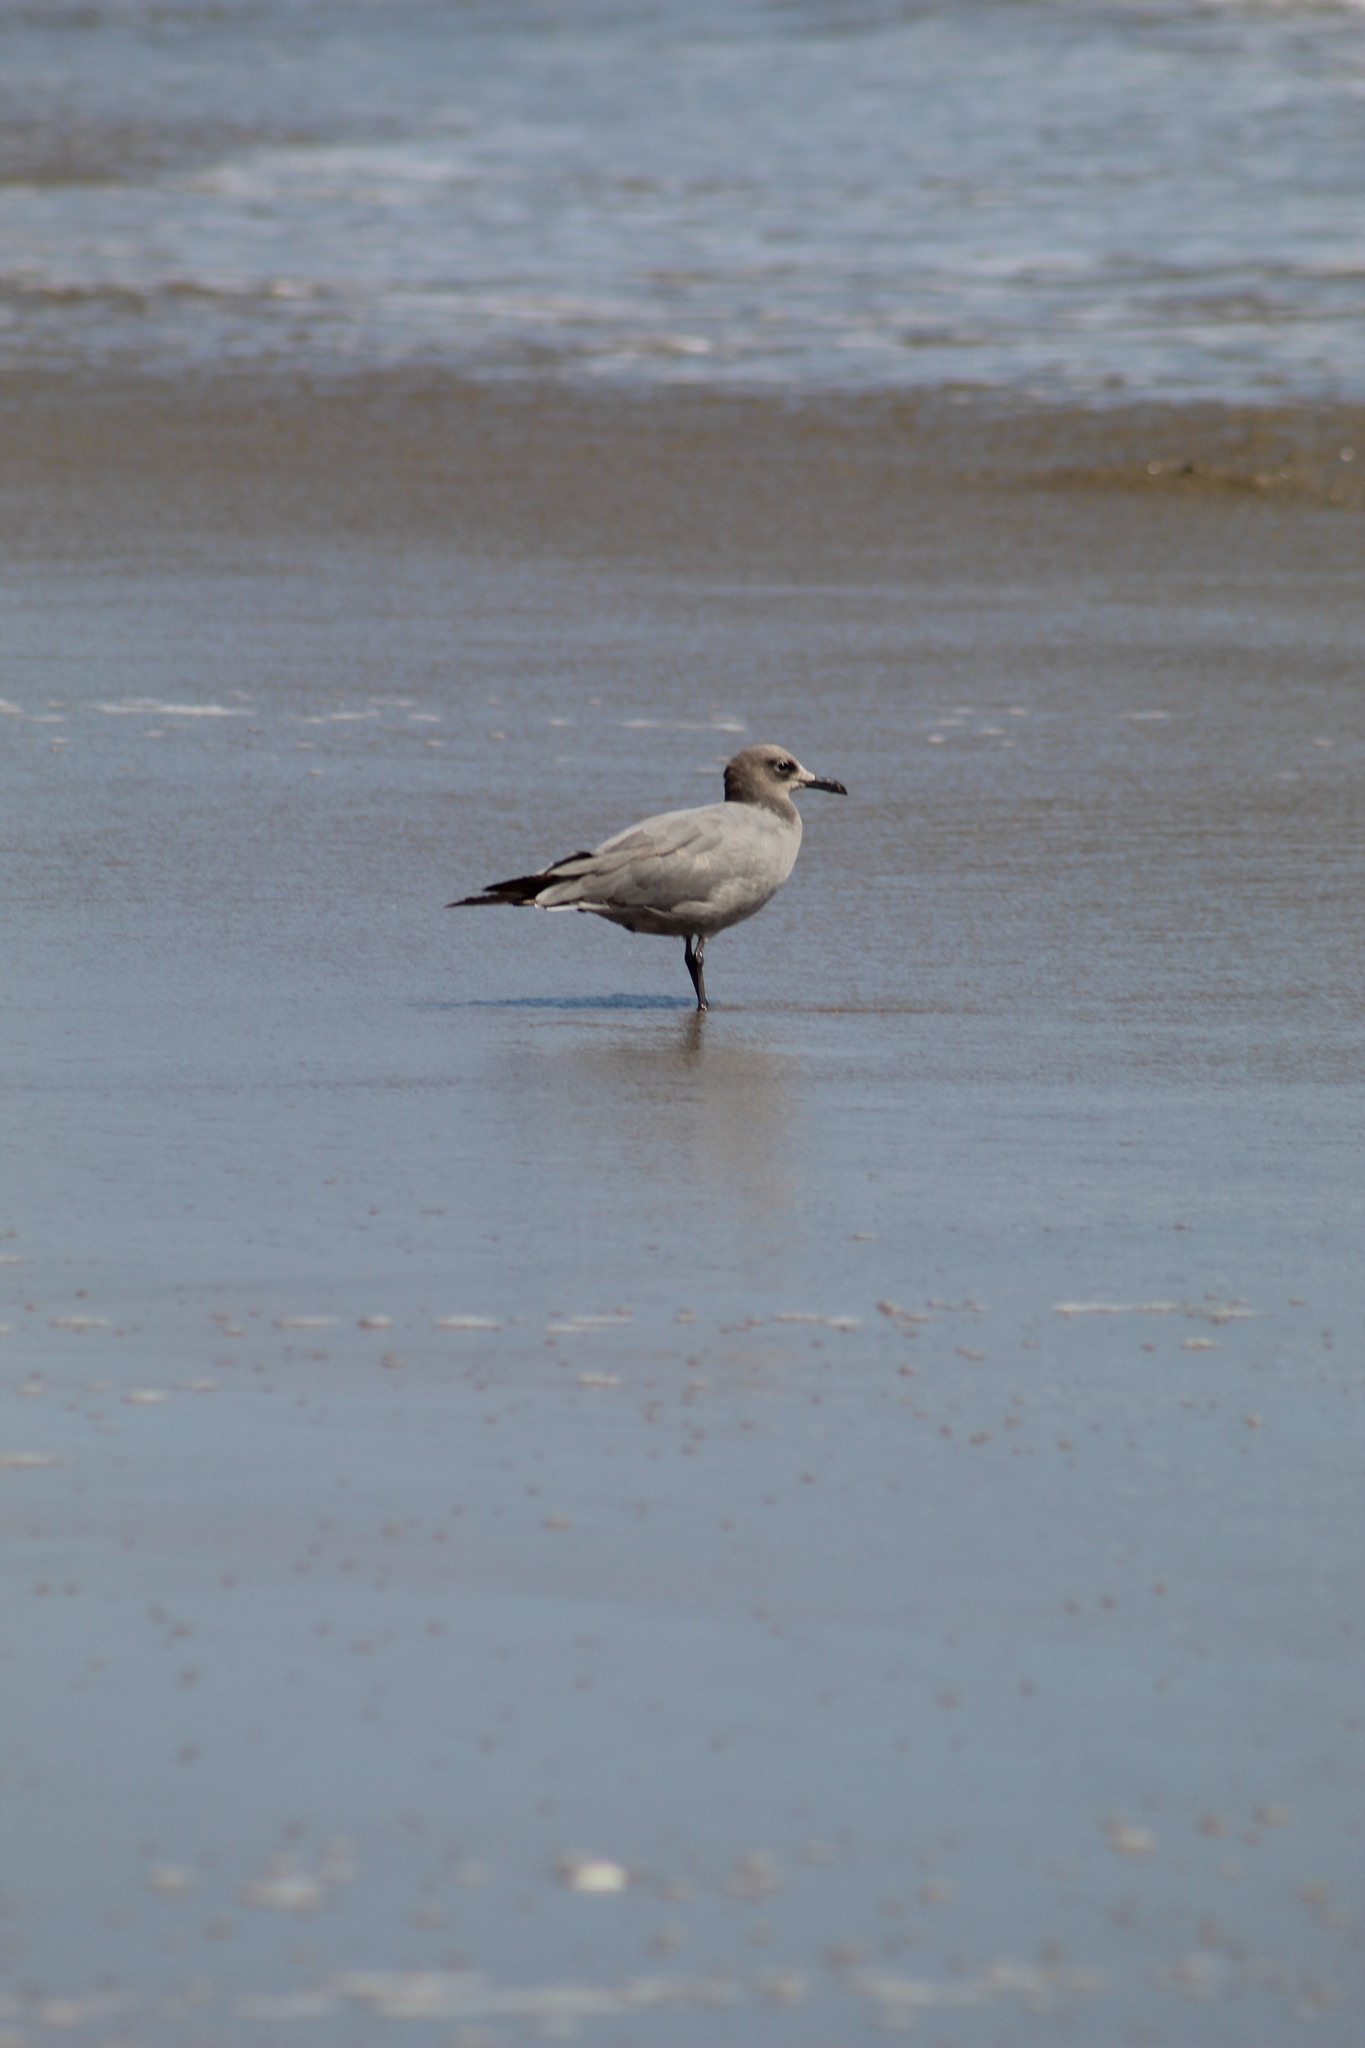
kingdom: Animalia
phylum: Chordata
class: Aves
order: Charadriiformes
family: Laridae
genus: Leucophaeus
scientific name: Leucophaeus modestus
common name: Gray gull
